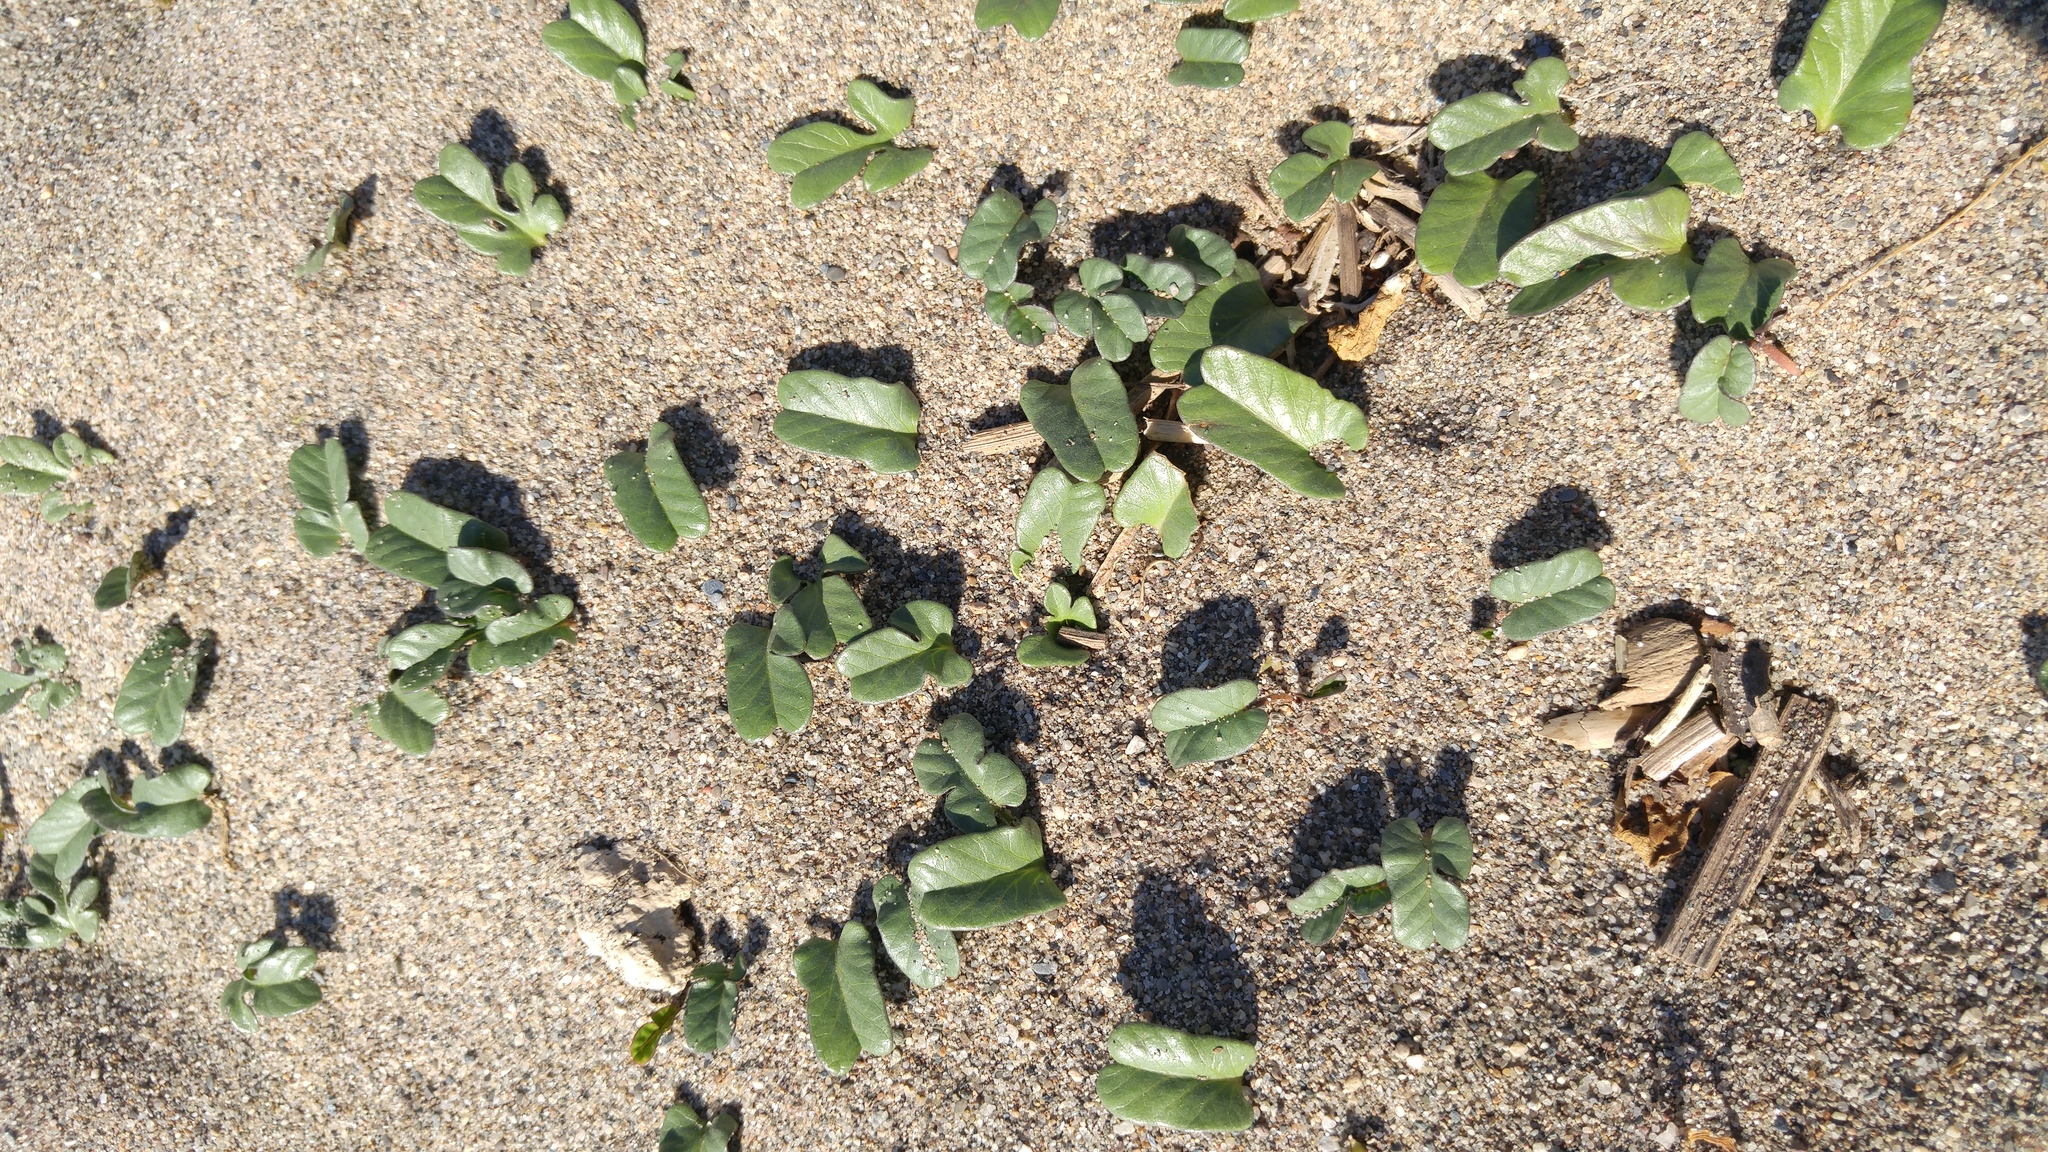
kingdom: Plantae
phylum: Tracheophyta
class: Magnoliopsida
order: Solanales
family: Convolvulaceae
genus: Ipomoea
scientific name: Ipomoea imperati
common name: Fiddle-leaf morning-glory
